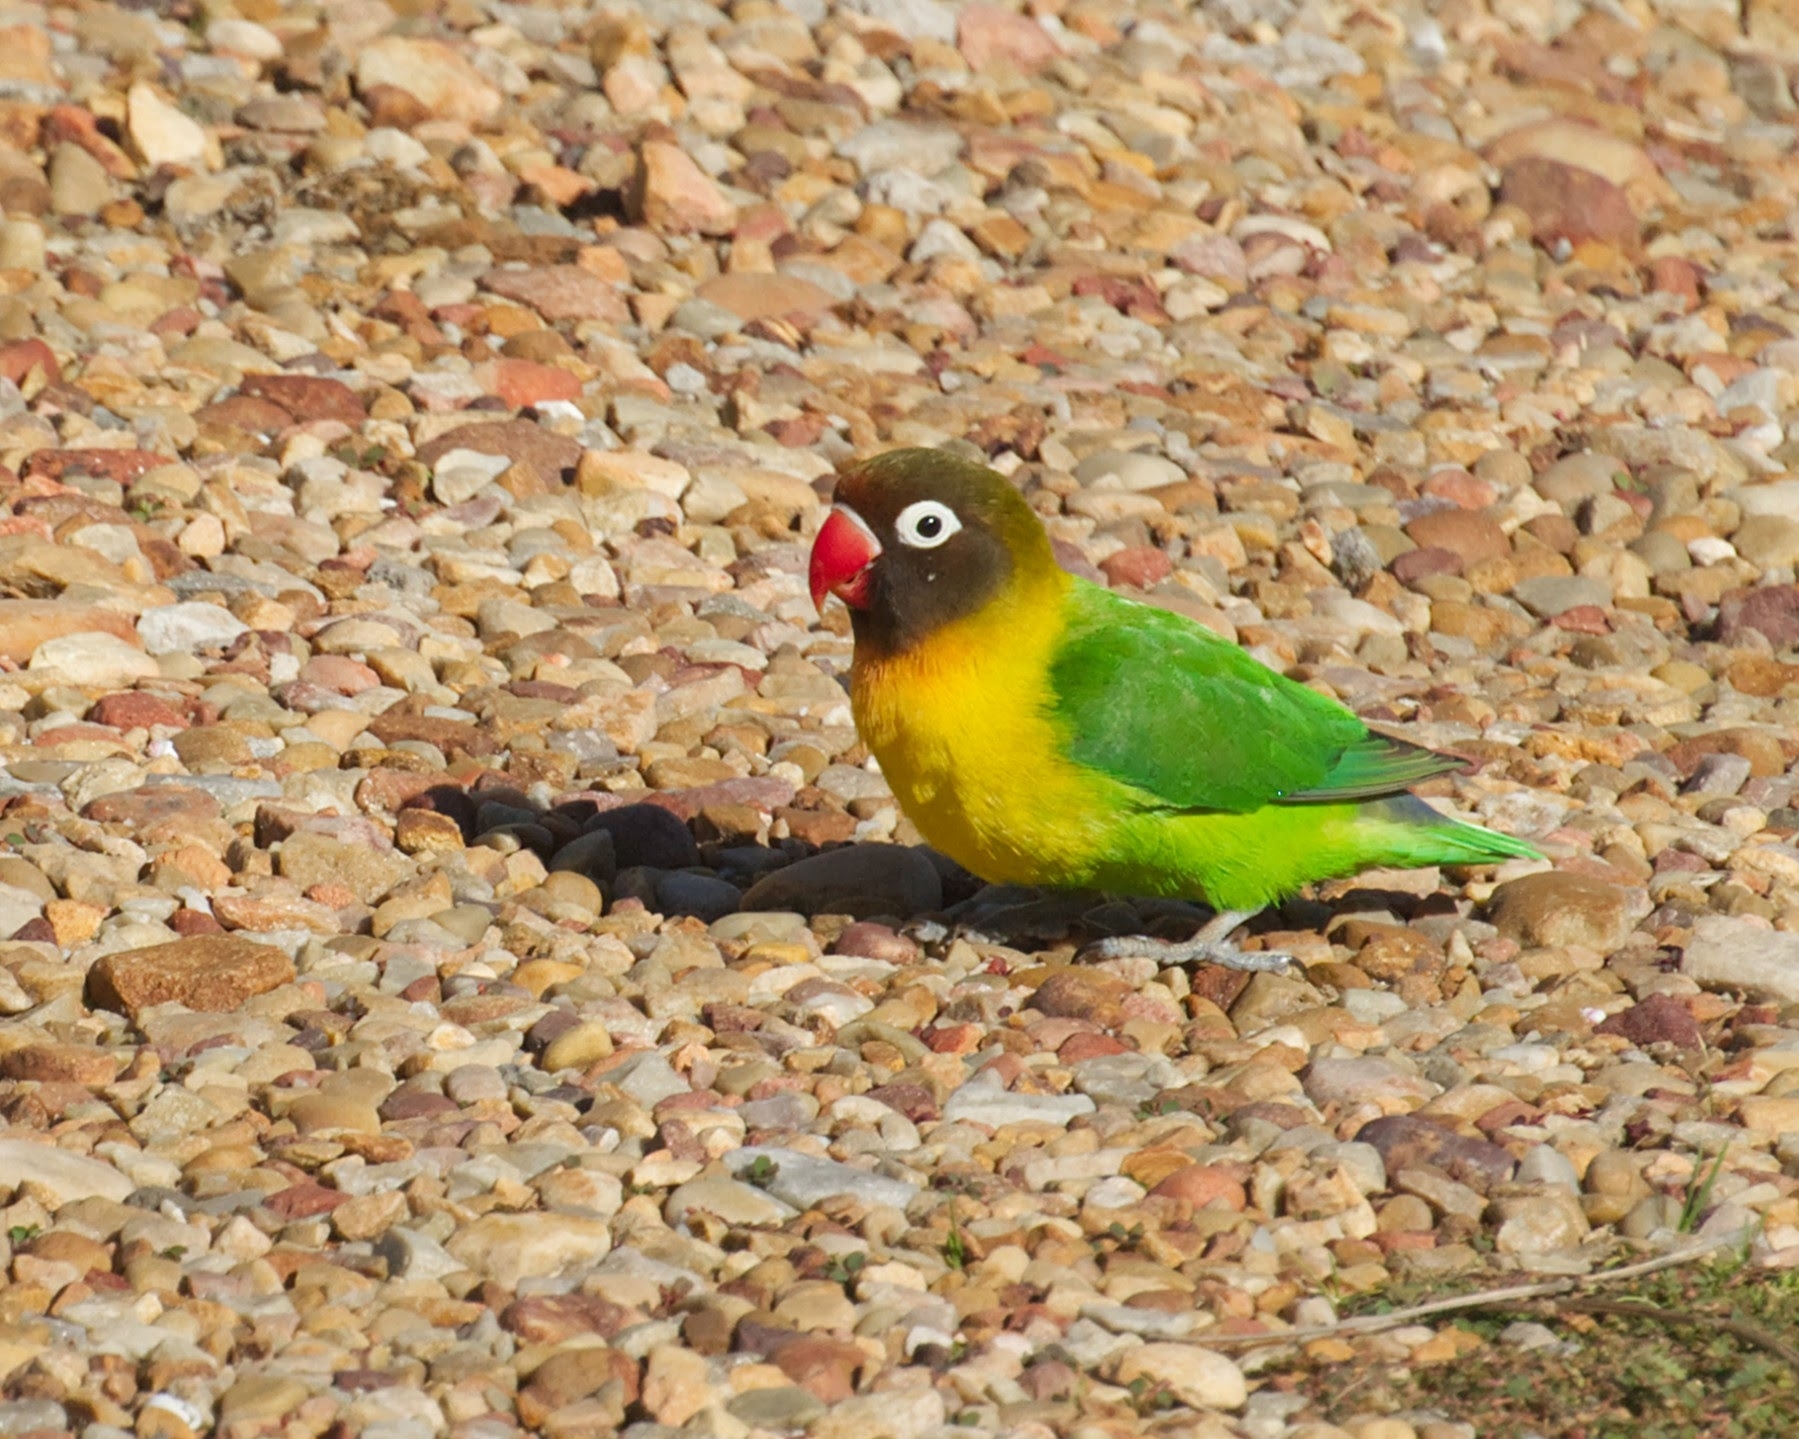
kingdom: Animalia
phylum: Chordata
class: Aves
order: Psittaciformes
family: Psittacidae
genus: Agapornis
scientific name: Agapornis personatus
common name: Yellow-collared lovebird
